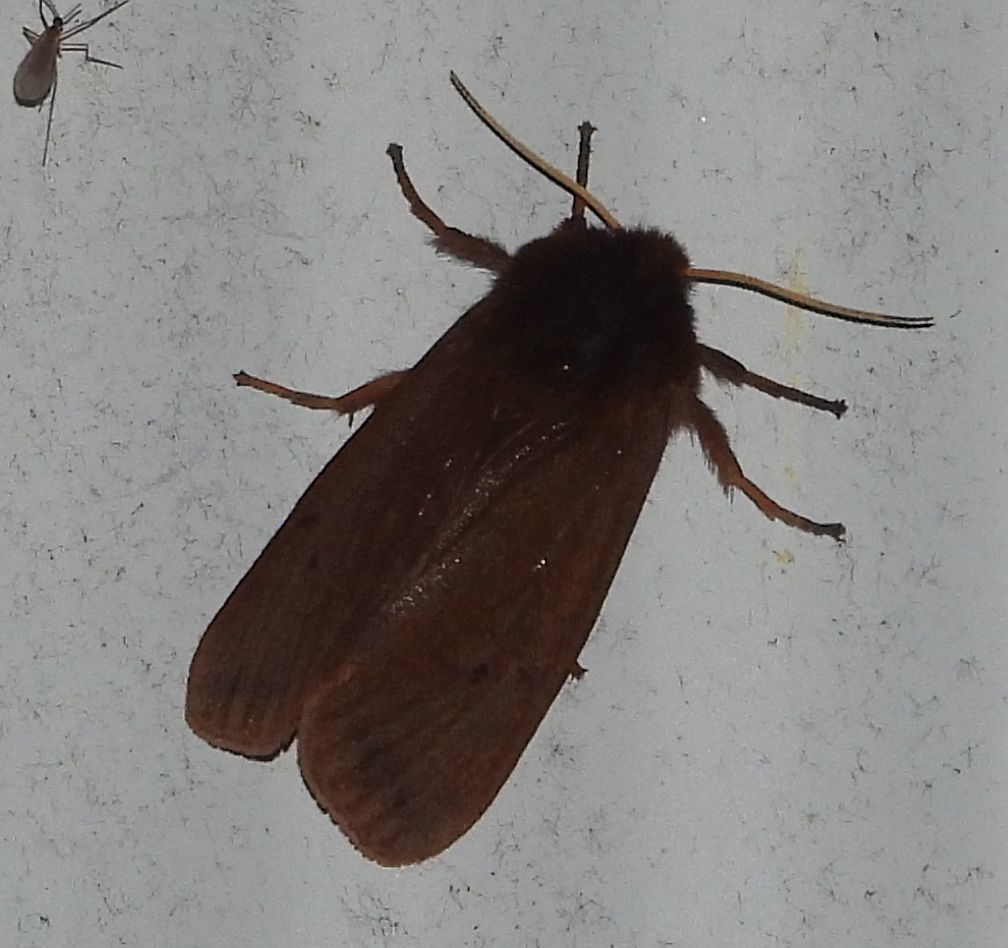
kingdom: Animalia
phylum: Arthropoda
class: Insecta
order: Lepidoptera
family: Erebidae
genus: Phragmatobia
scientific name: Phragmatobia fuliginosa
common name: Ruby tiger
